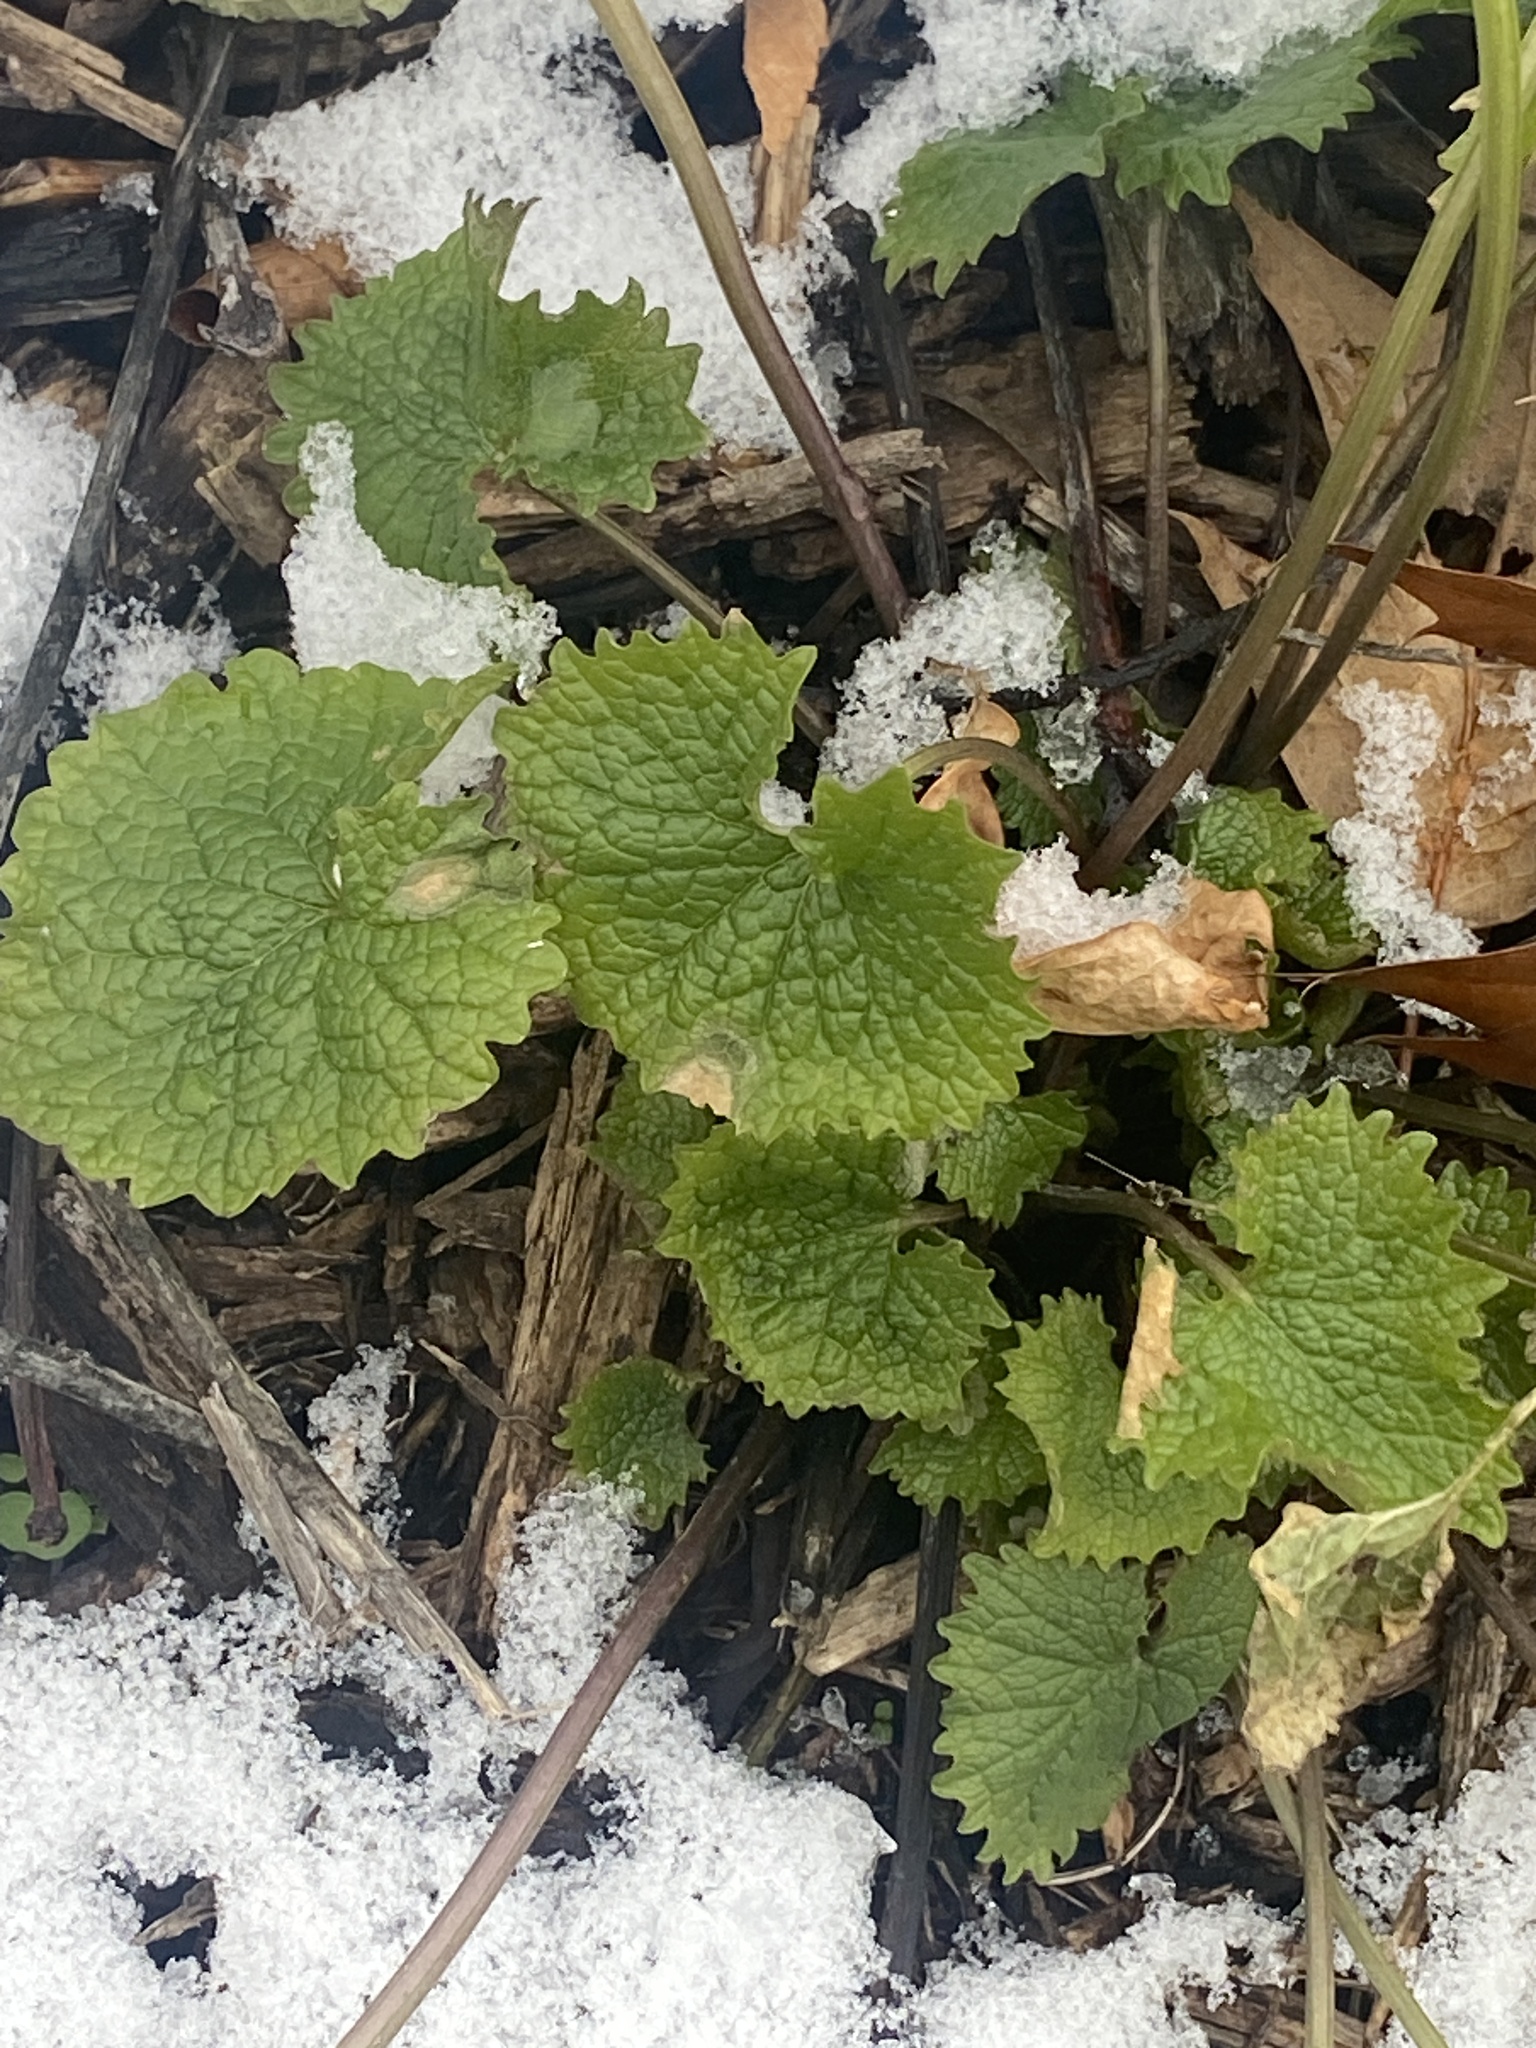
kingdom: Plantae
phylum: Tracheophyta
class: Magnoliopsida
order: Brassicales
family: Brassicaceae
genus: Alliaria
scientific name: Alliaria petiolata
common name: Garlic mustard
